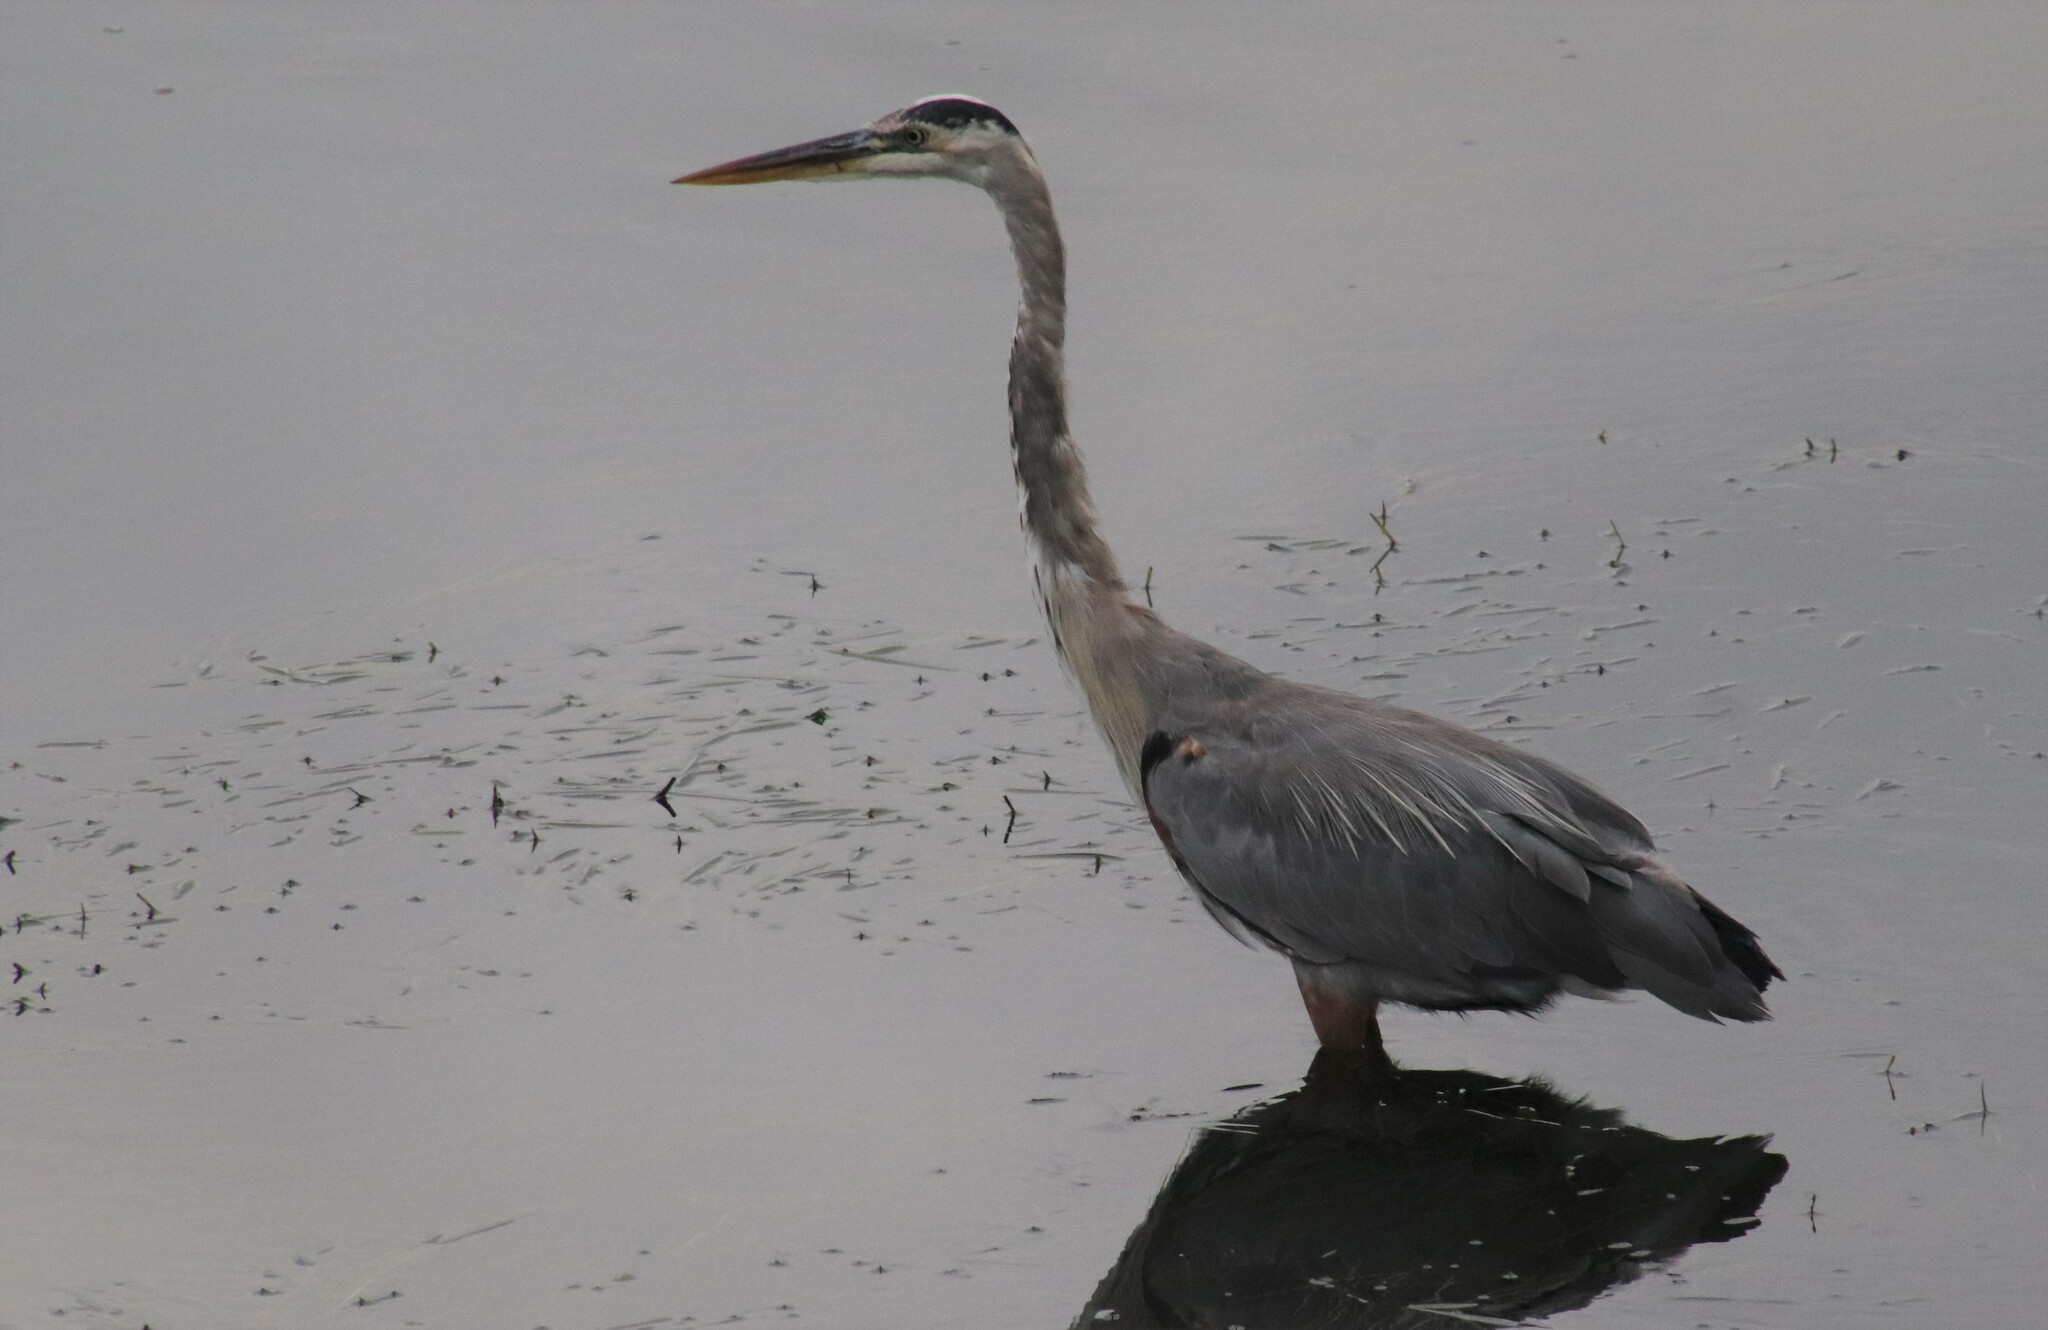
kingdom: Animalia
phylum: Chordata
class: Aves
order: Pelecaniformes
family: Ardeidae
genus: Ardea
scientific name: Ardea herodias
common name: Great blue heron
